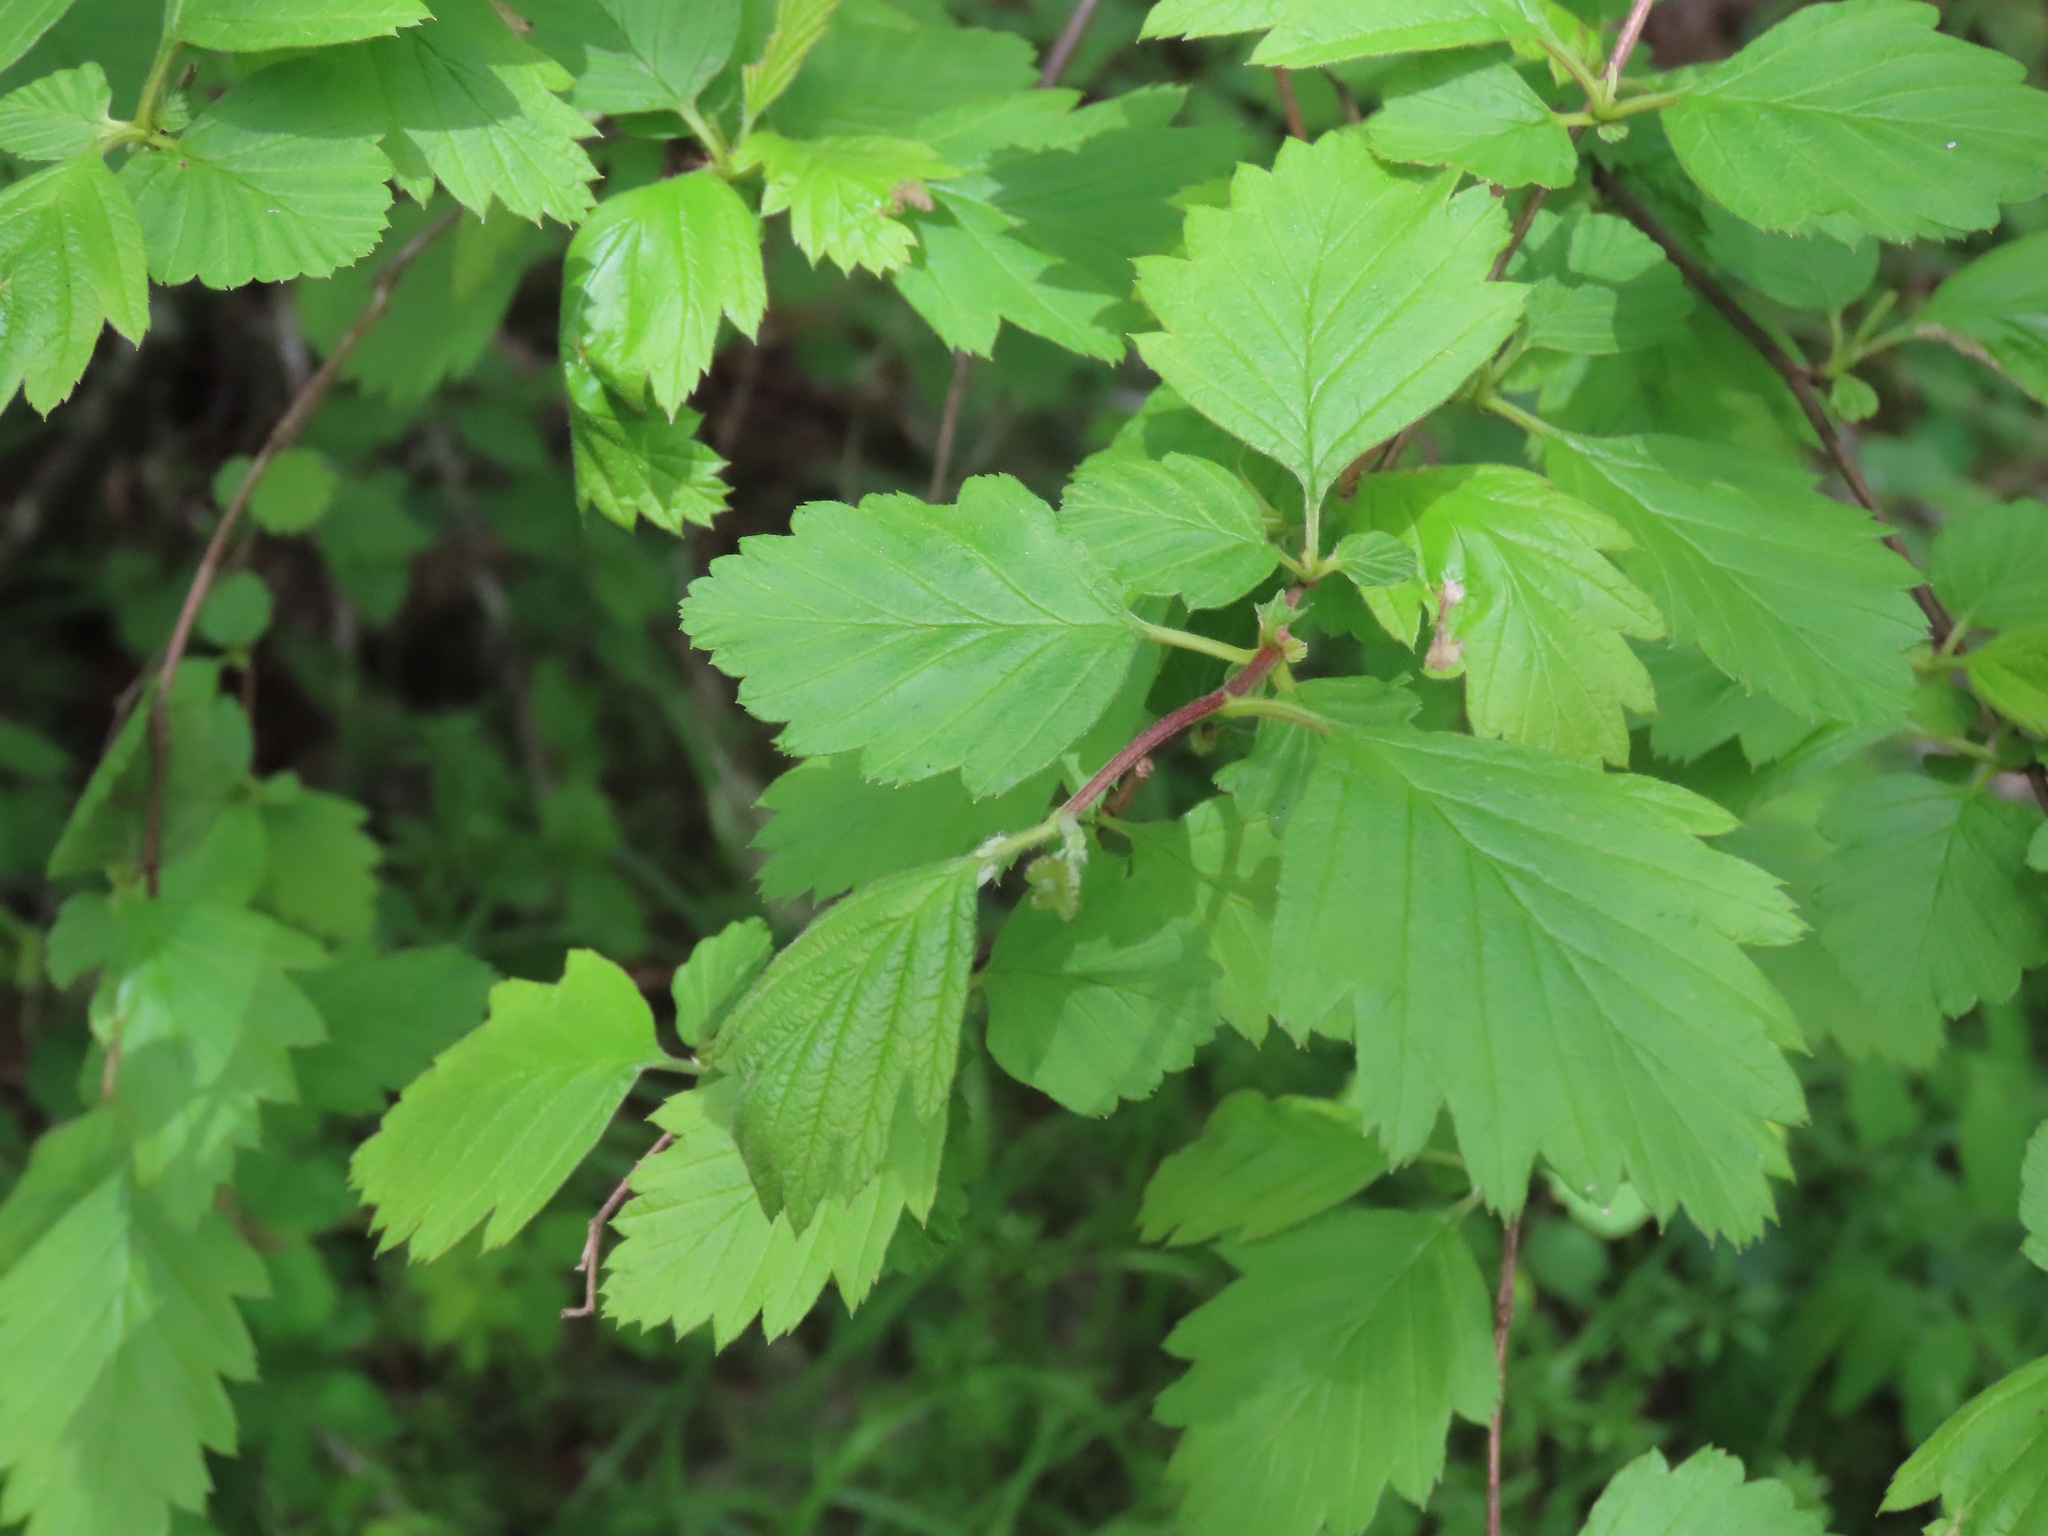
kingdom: Plantae
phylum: Tracheophyta
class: Magnoliopsida
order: Rosales
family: Rosaceae
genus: Holodiscus
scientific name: Holodiscus discolor
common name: Oceanspray
